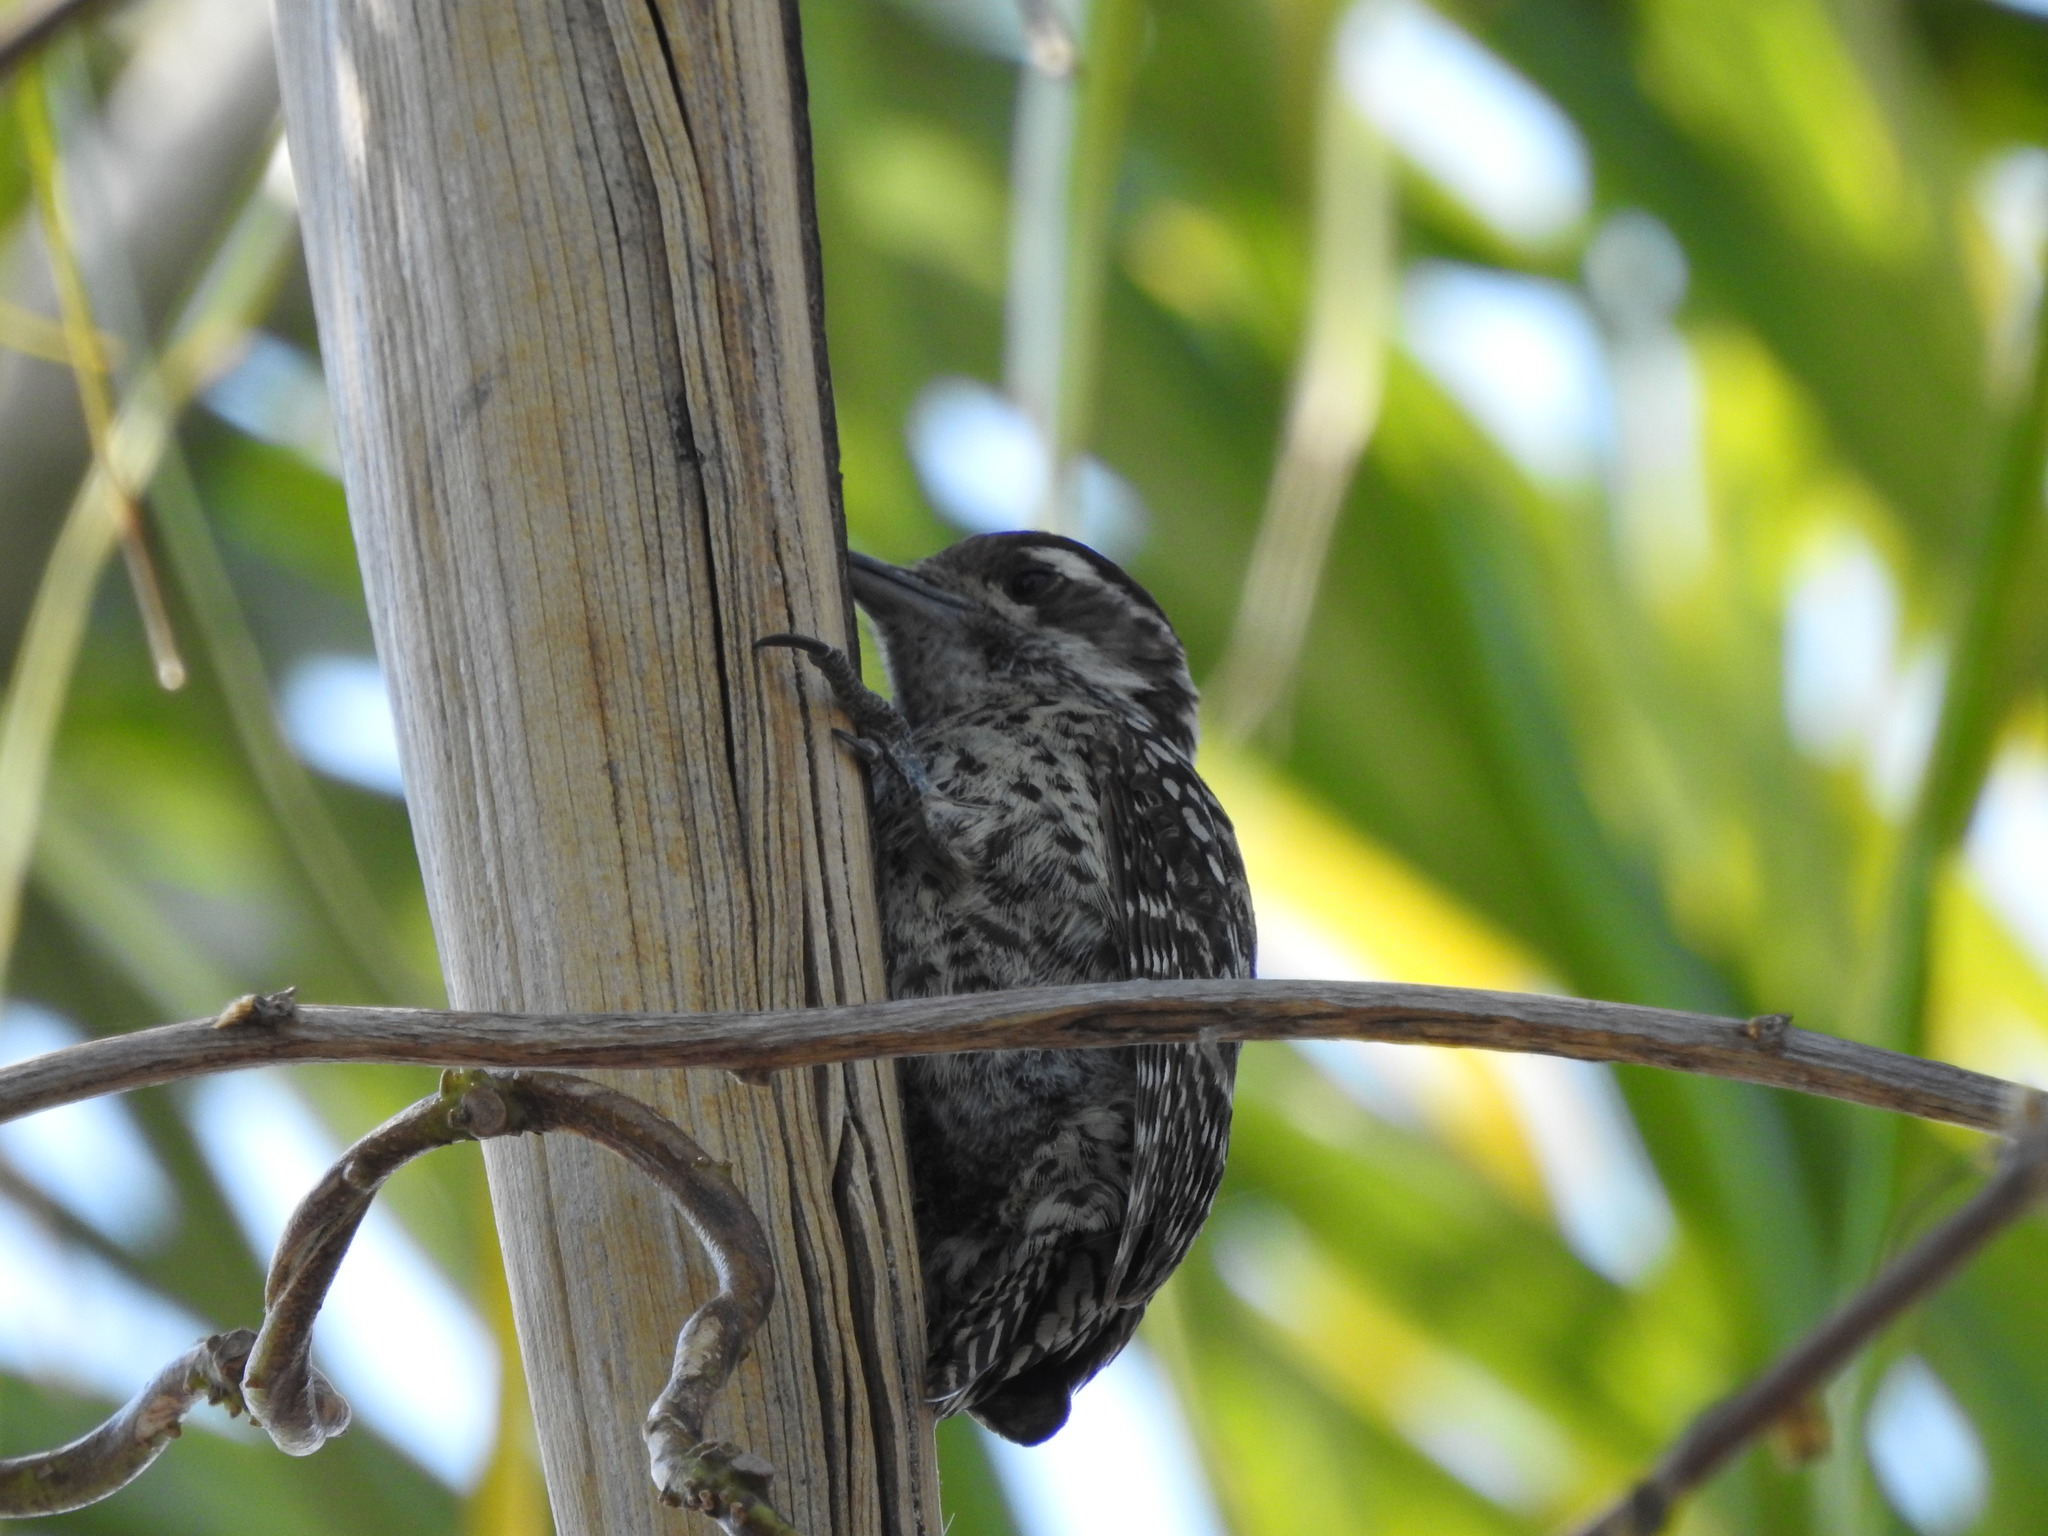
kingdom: Animalia
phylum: Chordata
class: Aves
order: Piciformes
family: Picidae
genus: Veniliornis
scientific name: Veniliornis mixtus
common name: Checkered woodpecker
